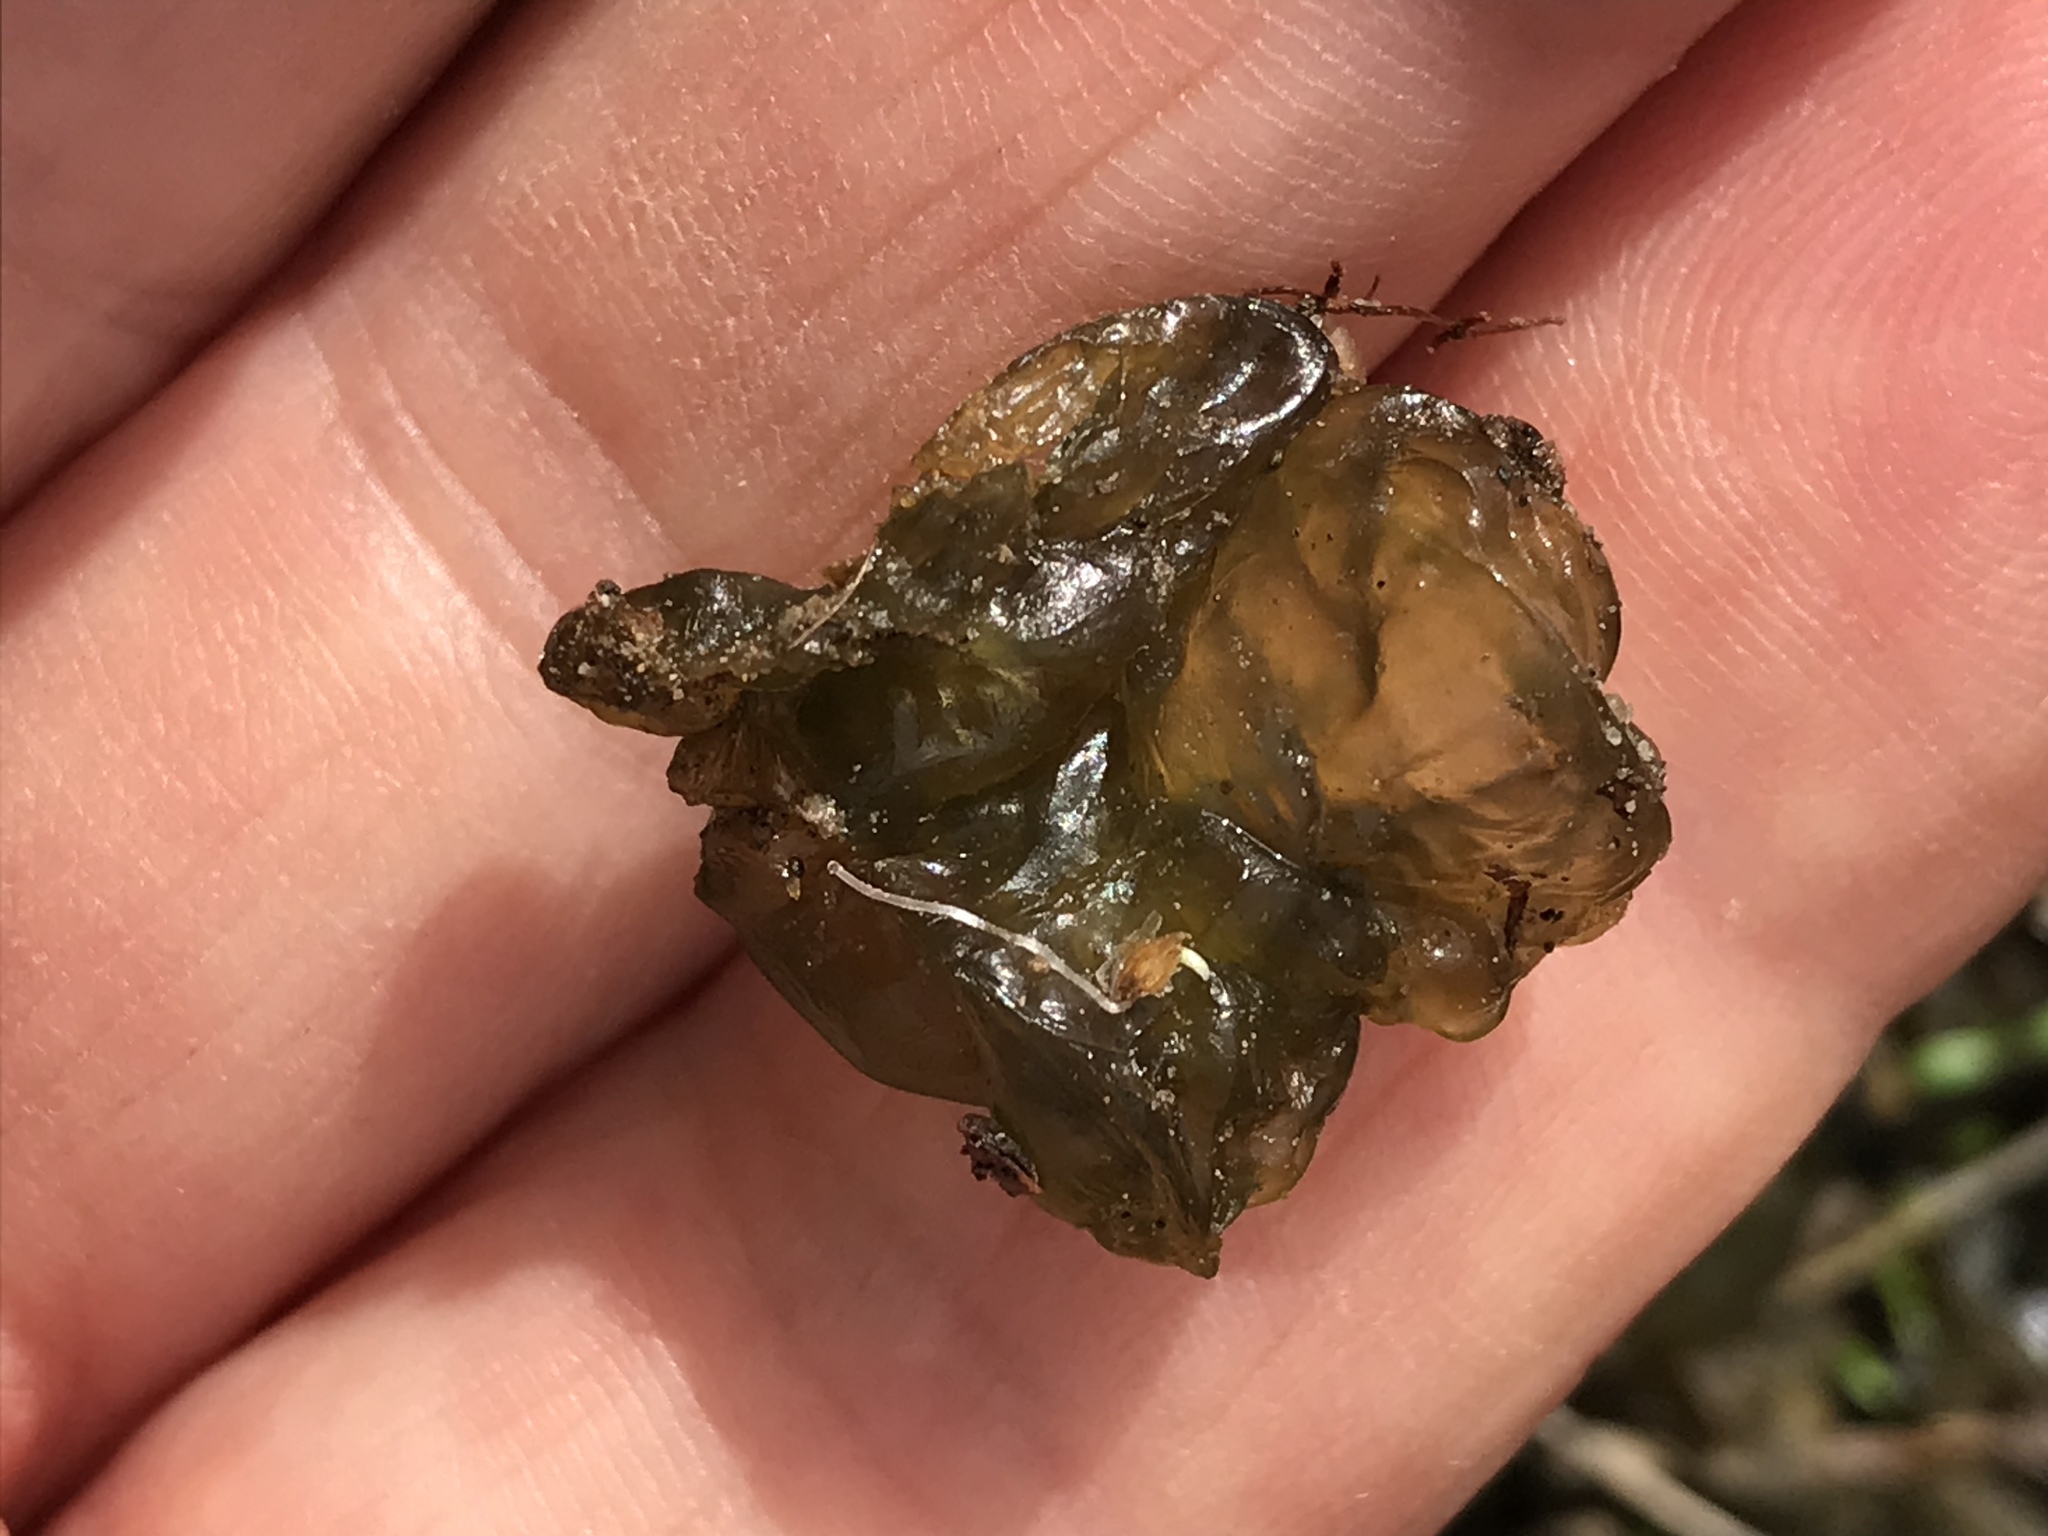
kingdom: Bacteria
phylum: Cyanobacteria
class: Cyanobacteriia
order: Cyanobacteriales
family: Nostocaceae
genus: Nostoc
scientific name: Nostoc commune
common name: Star jelly
